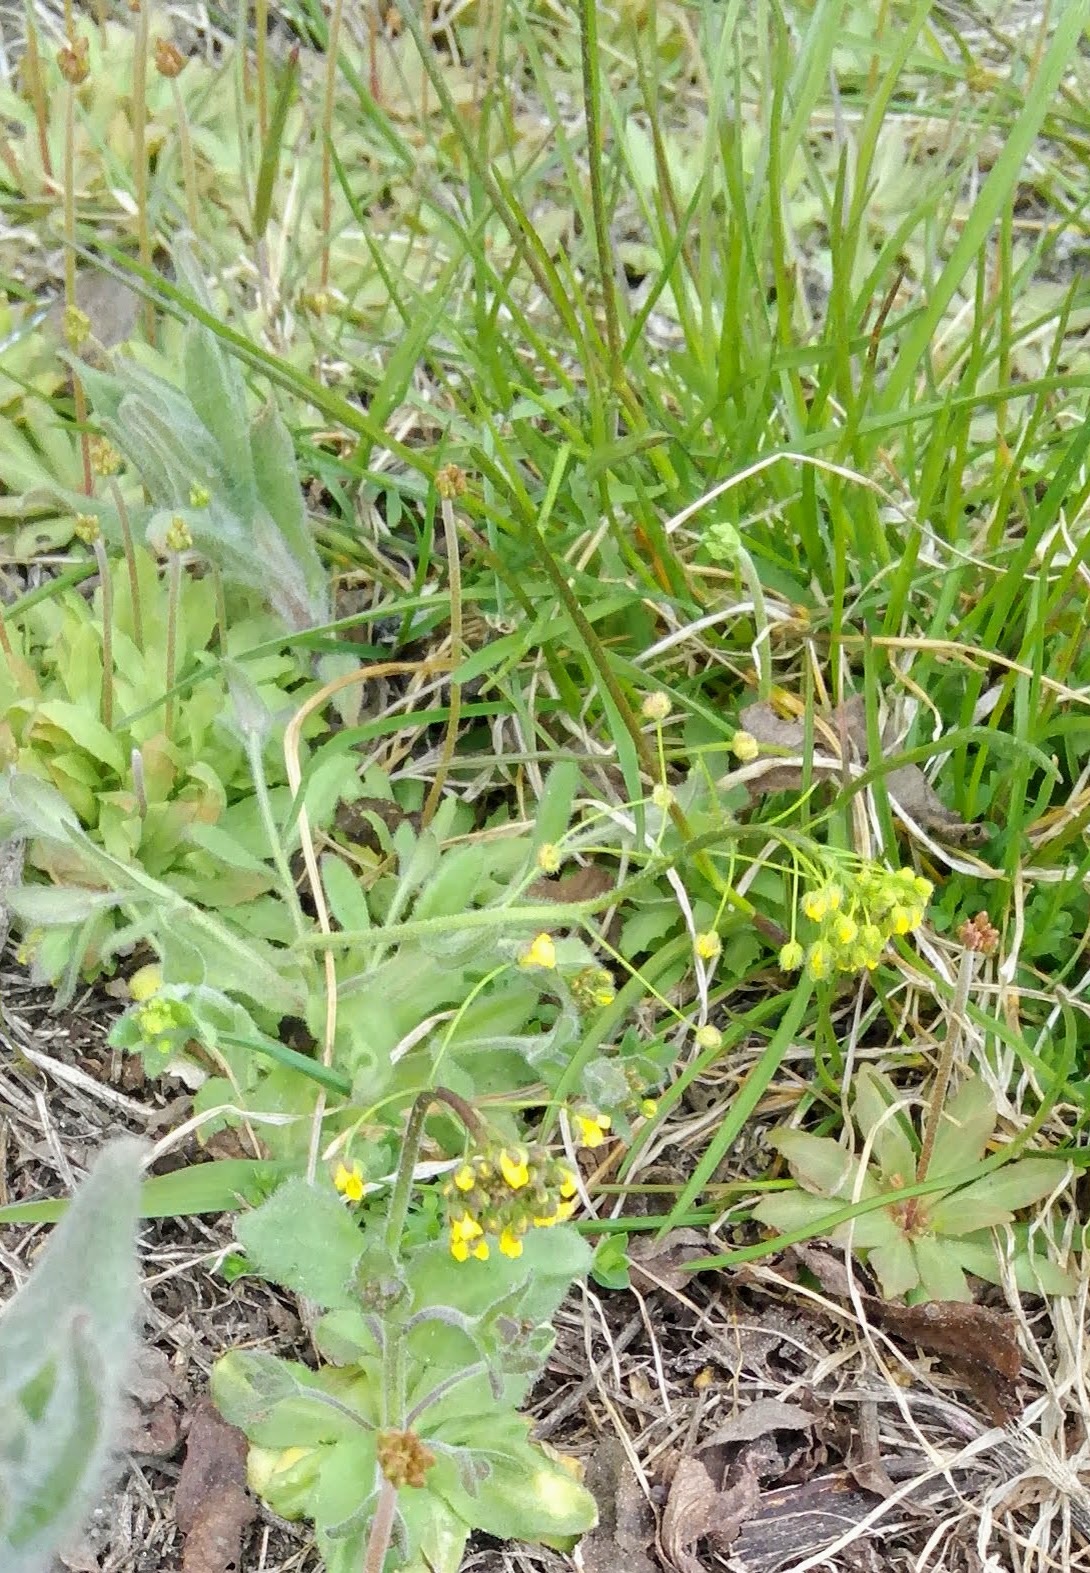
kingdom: Plantae
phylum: Tracheophyta
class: Magnoliopsida
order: Brassicales
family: Brassicaceae
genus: Draba
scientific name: Draba nemorosa
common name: Wood whitlow-grass
